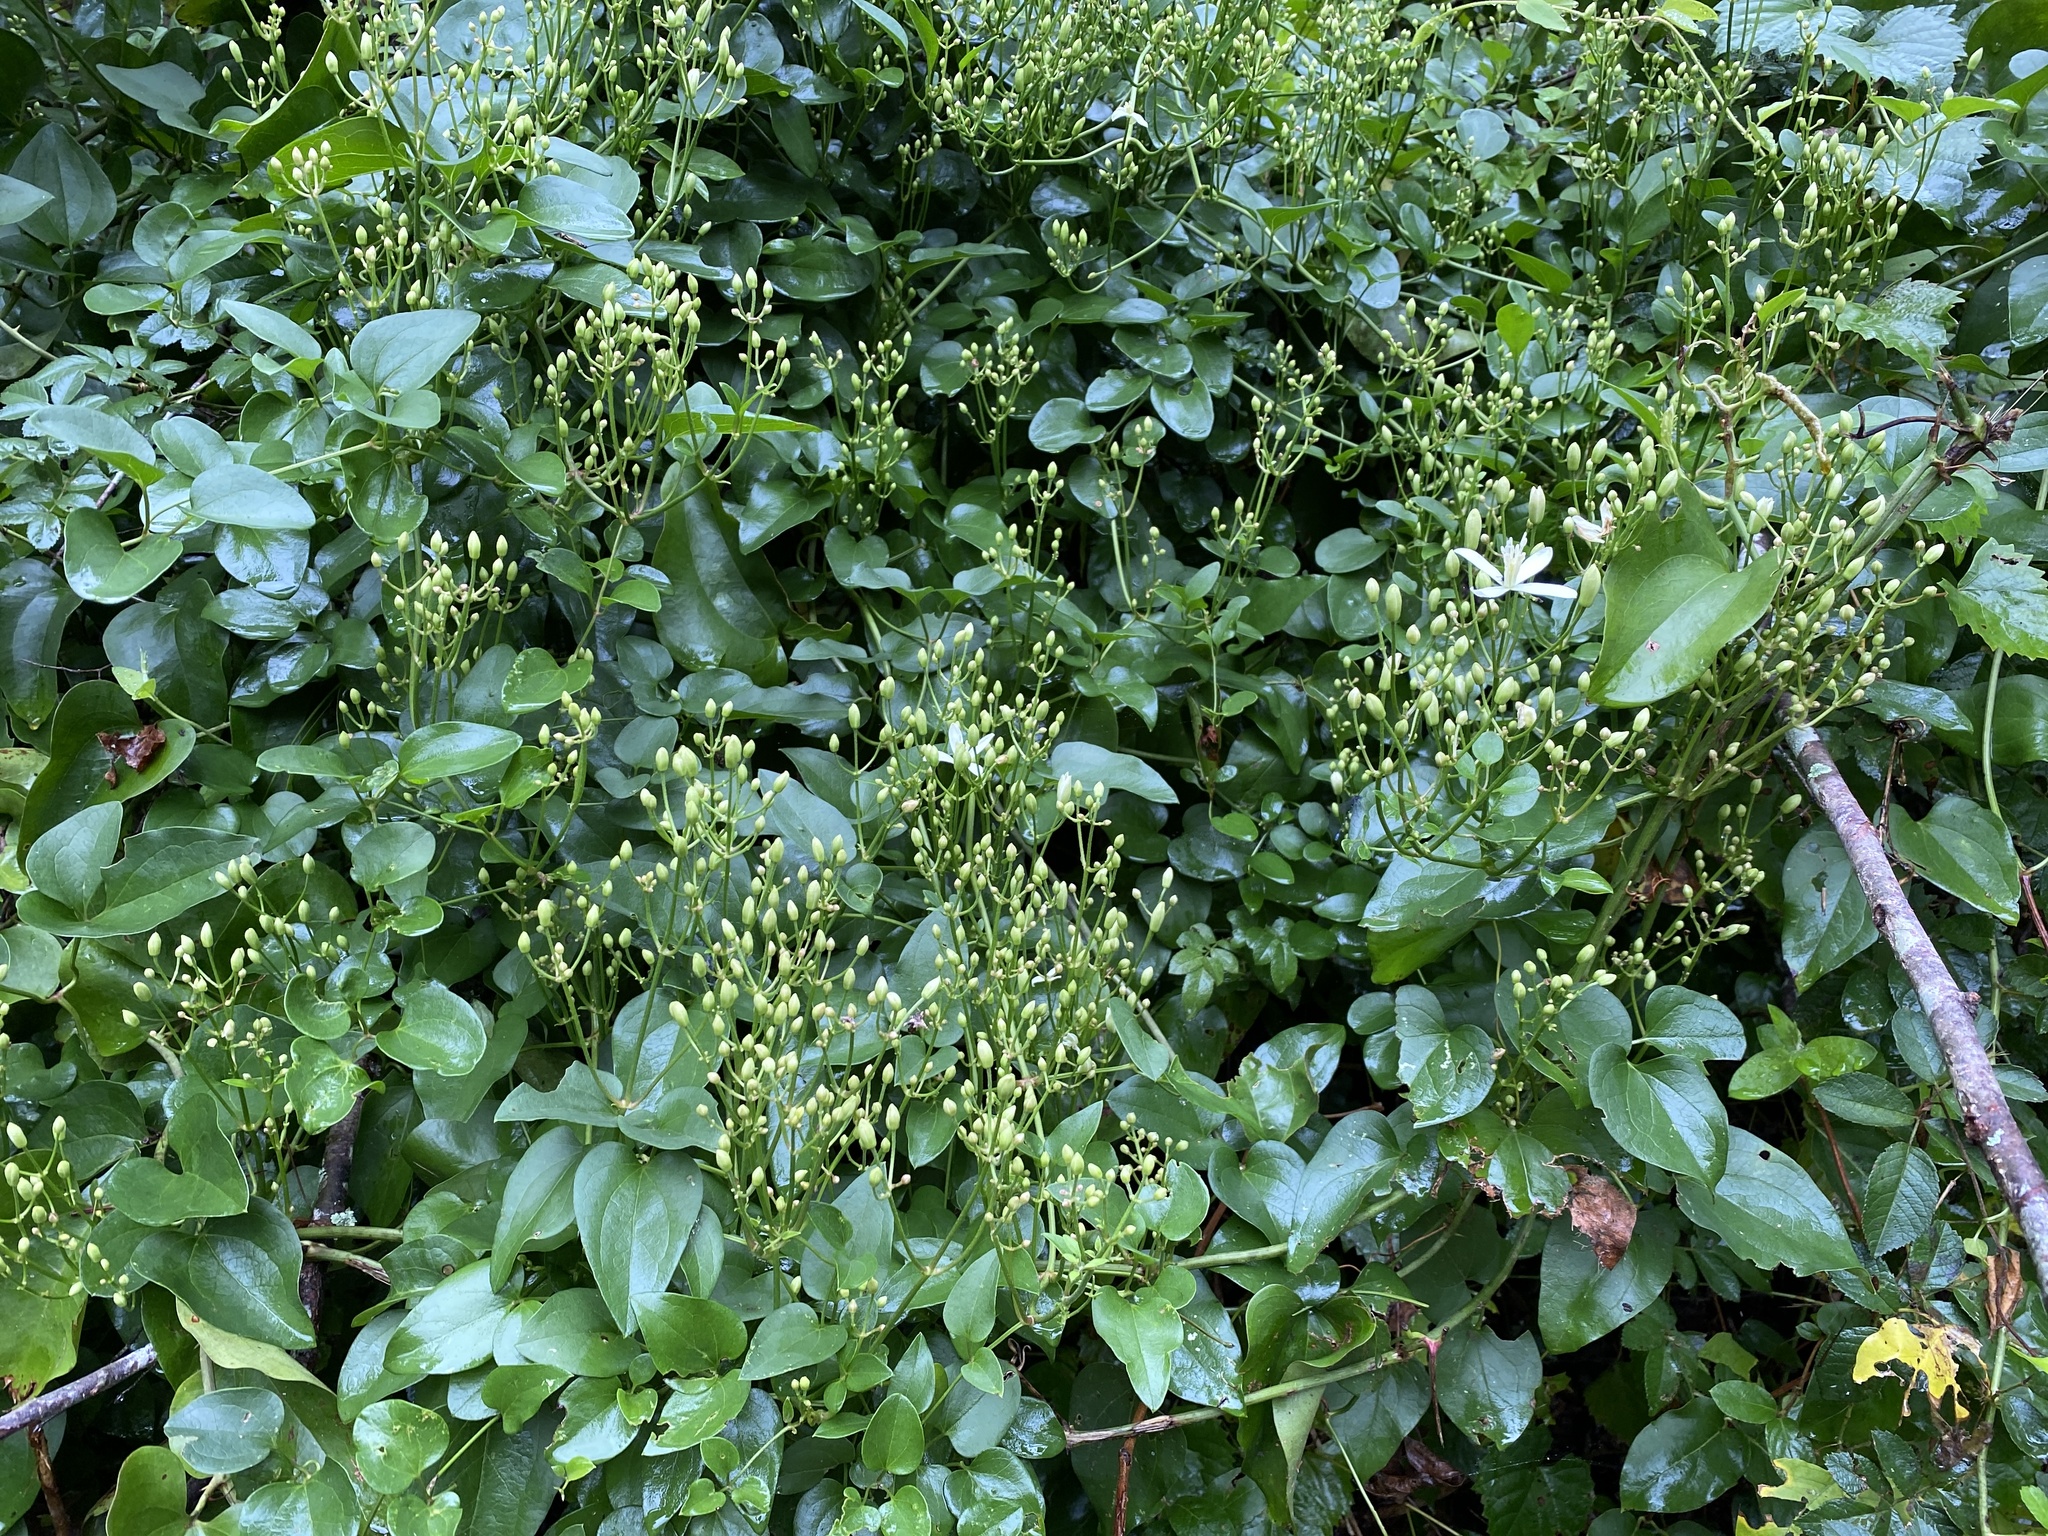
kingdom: Plantae
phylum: Tracheophyta
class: Magnoliopsida
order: Ranunculales
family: Ranunculaceae
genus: Clematis
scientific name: Clematis terniflora
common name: Sweet autumn clematis
